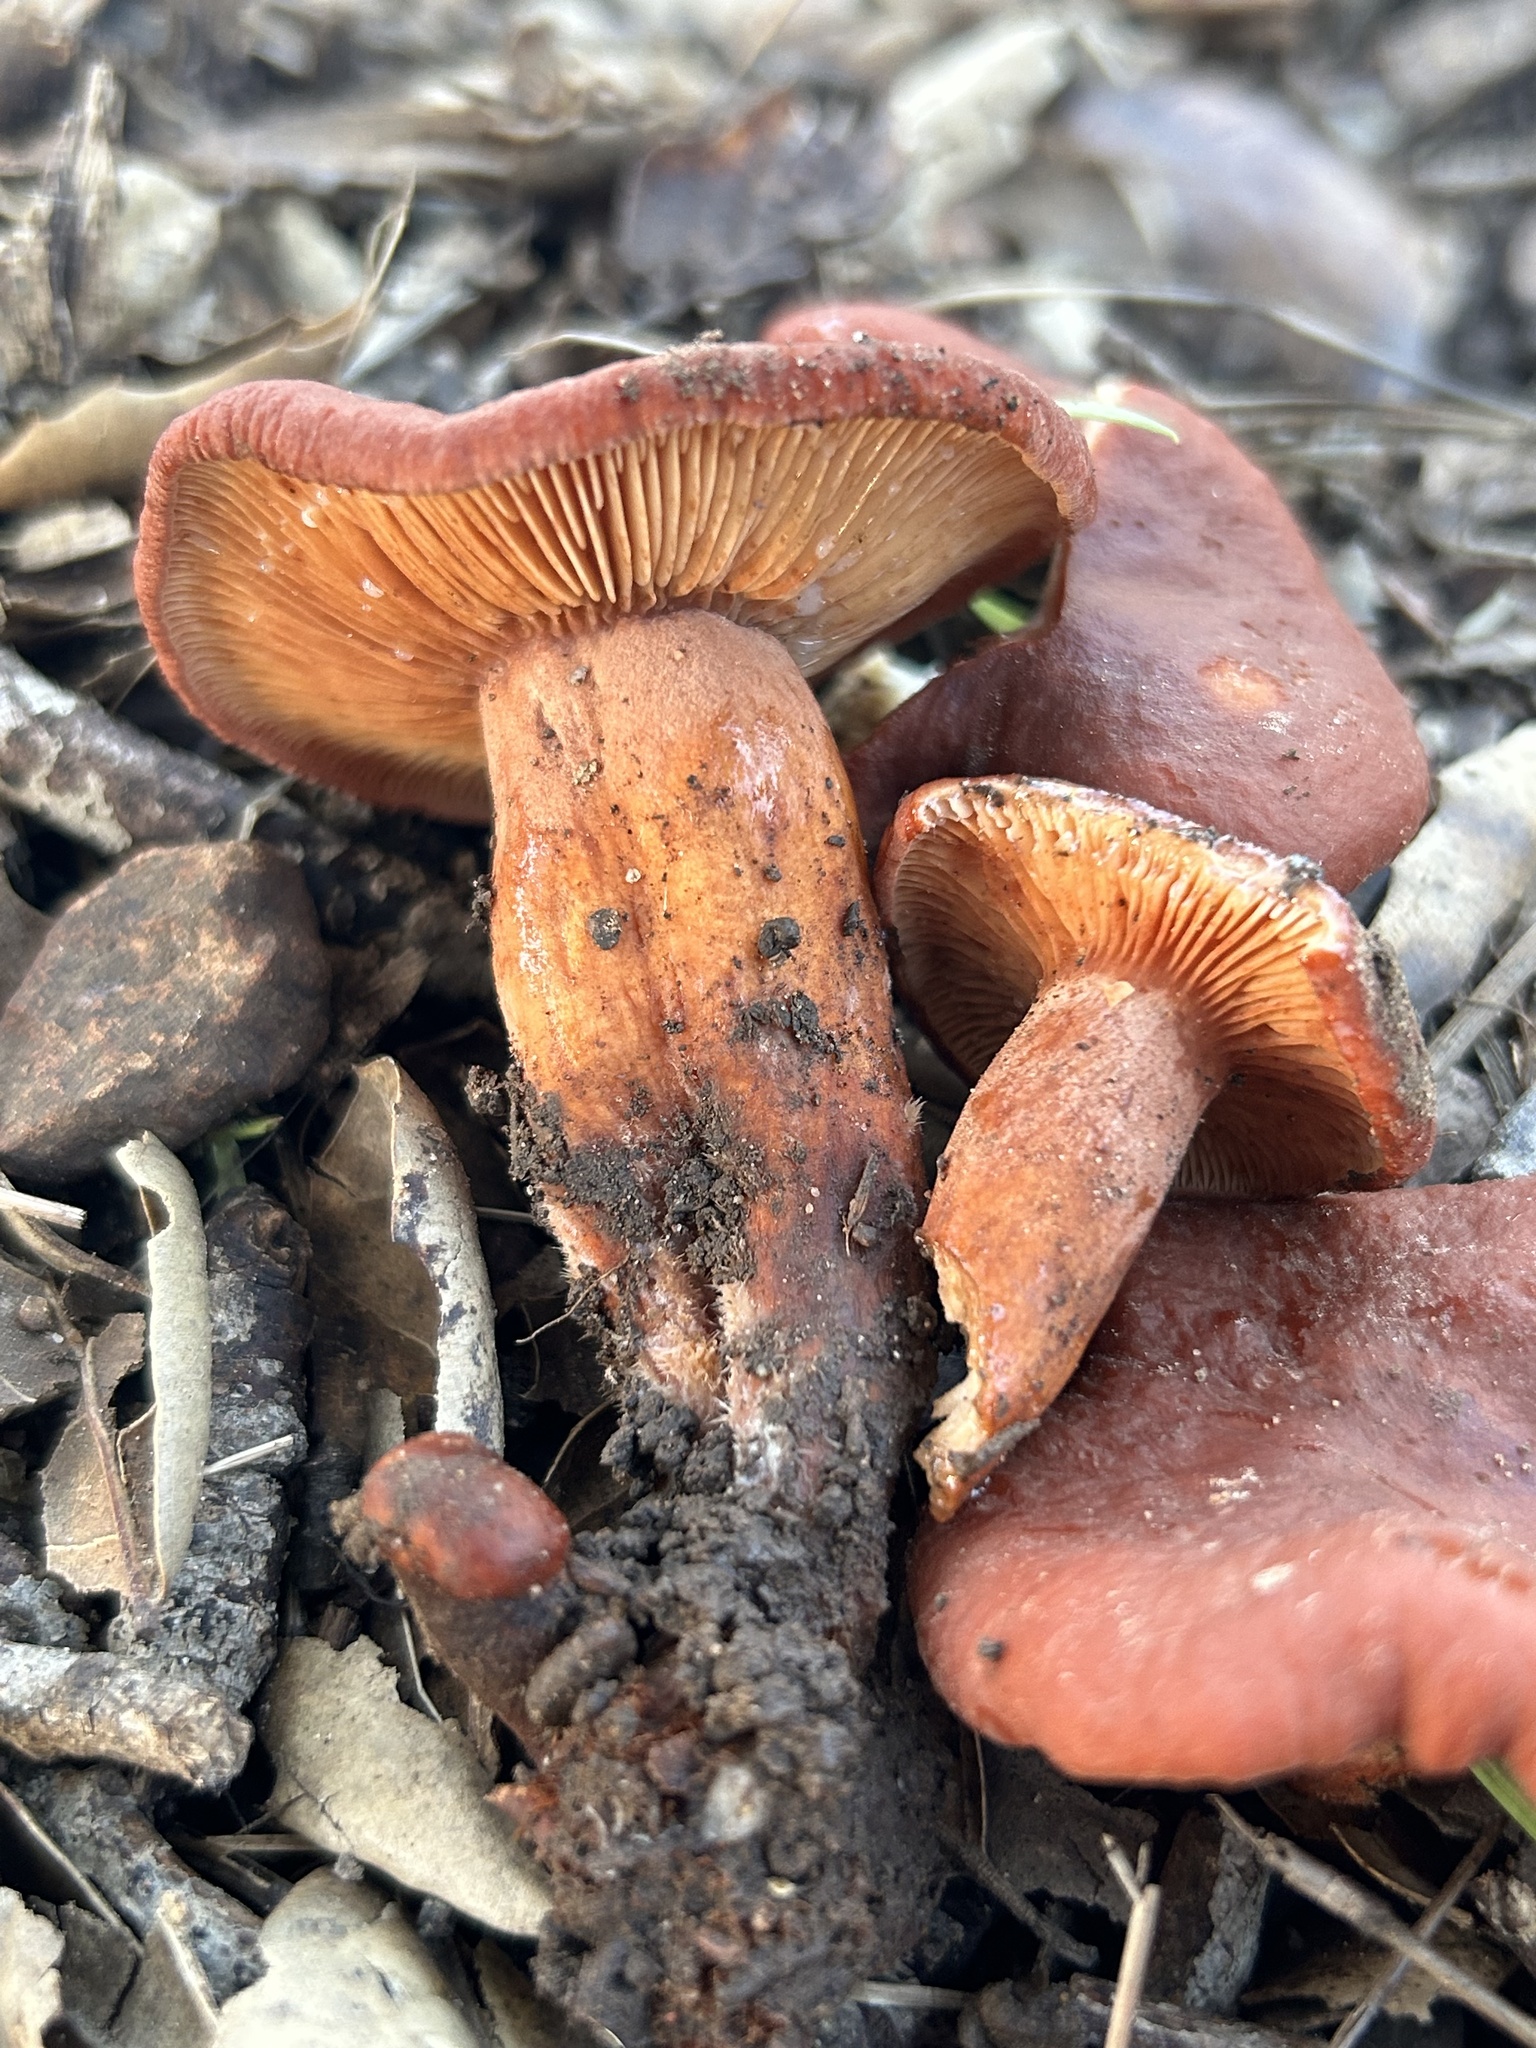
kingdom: Fungi
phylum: Basidiomycota
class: Agaricomycetes
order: Russulales
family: Russulaceae
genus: Lactarius
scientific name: Lactarius rufulus
